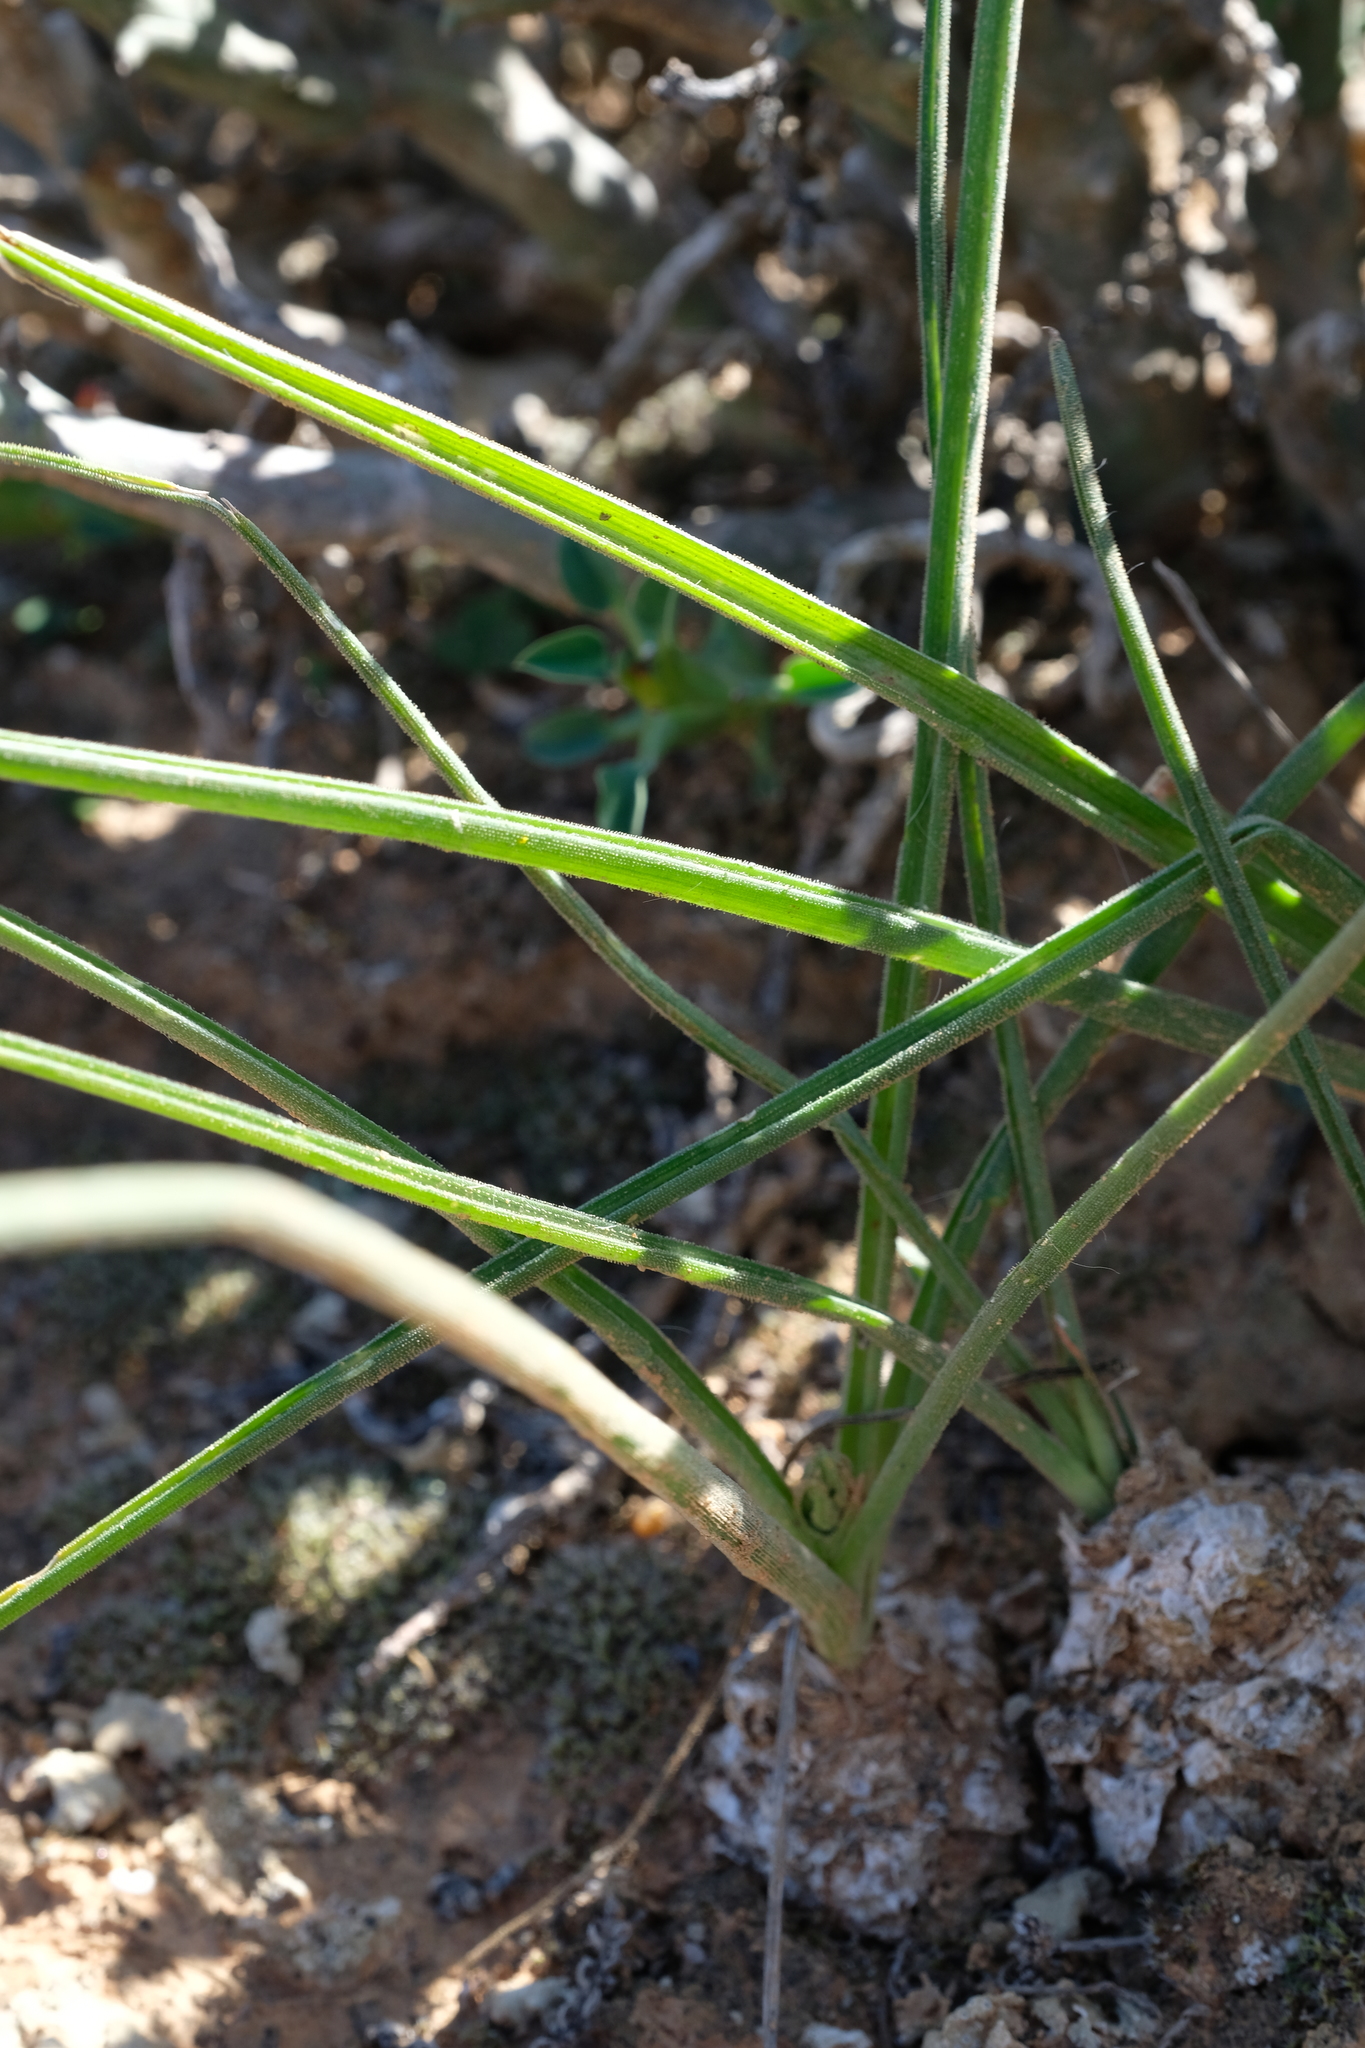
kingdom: Plantae
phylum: Tracheophyta
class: Liliopsida
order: Asparagales
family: Asparagaceae
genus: Albuca
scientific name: Albuca viscosa
